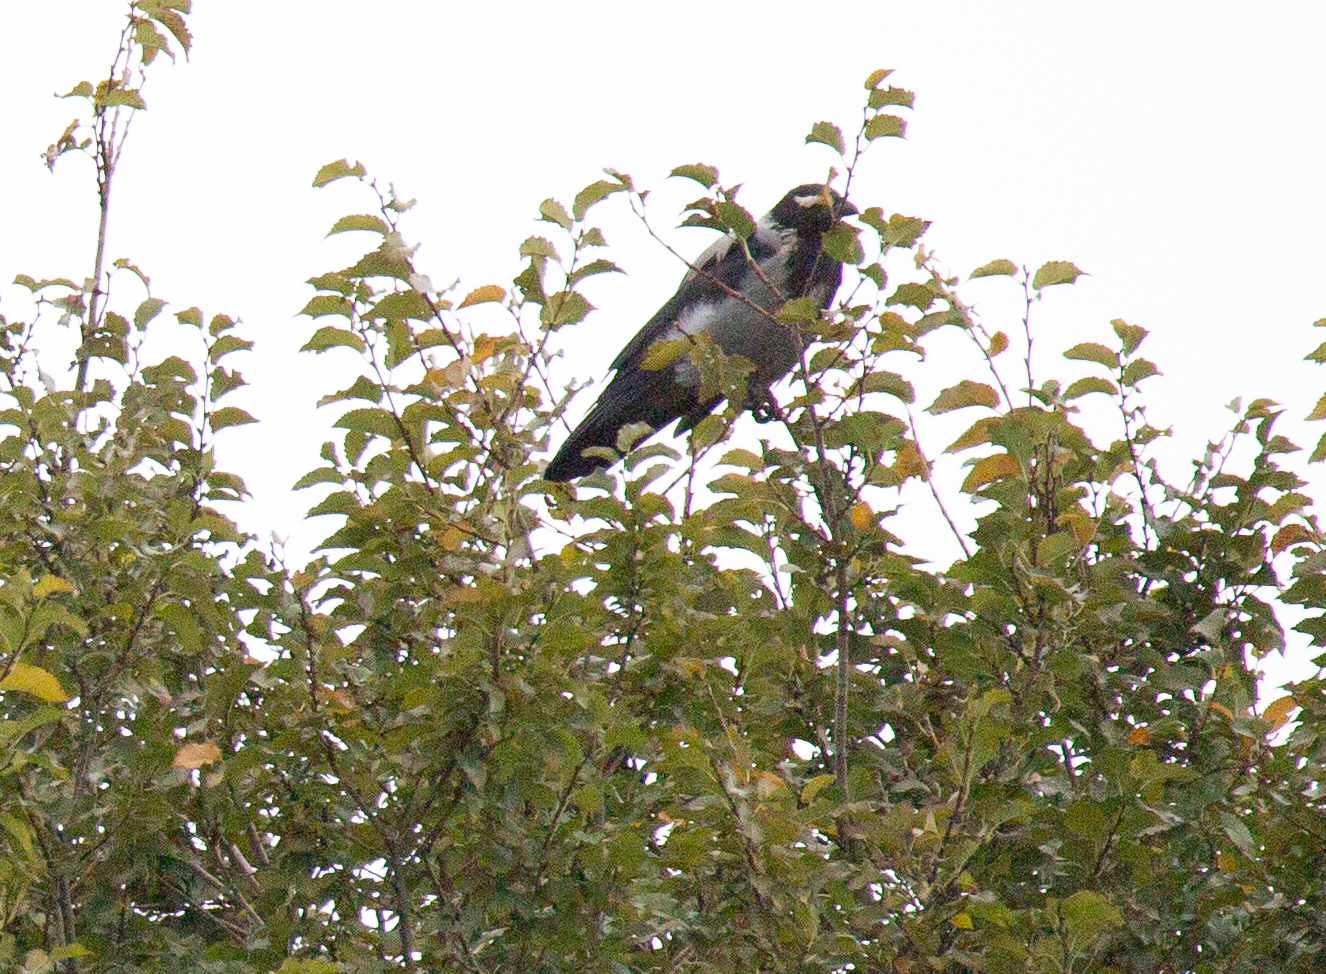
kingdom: Animalia
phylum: Chordata
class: Aves
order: Passeriformes
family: Corvidae
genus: Corvus
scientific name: Corvus cornix
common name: Hooded crow
